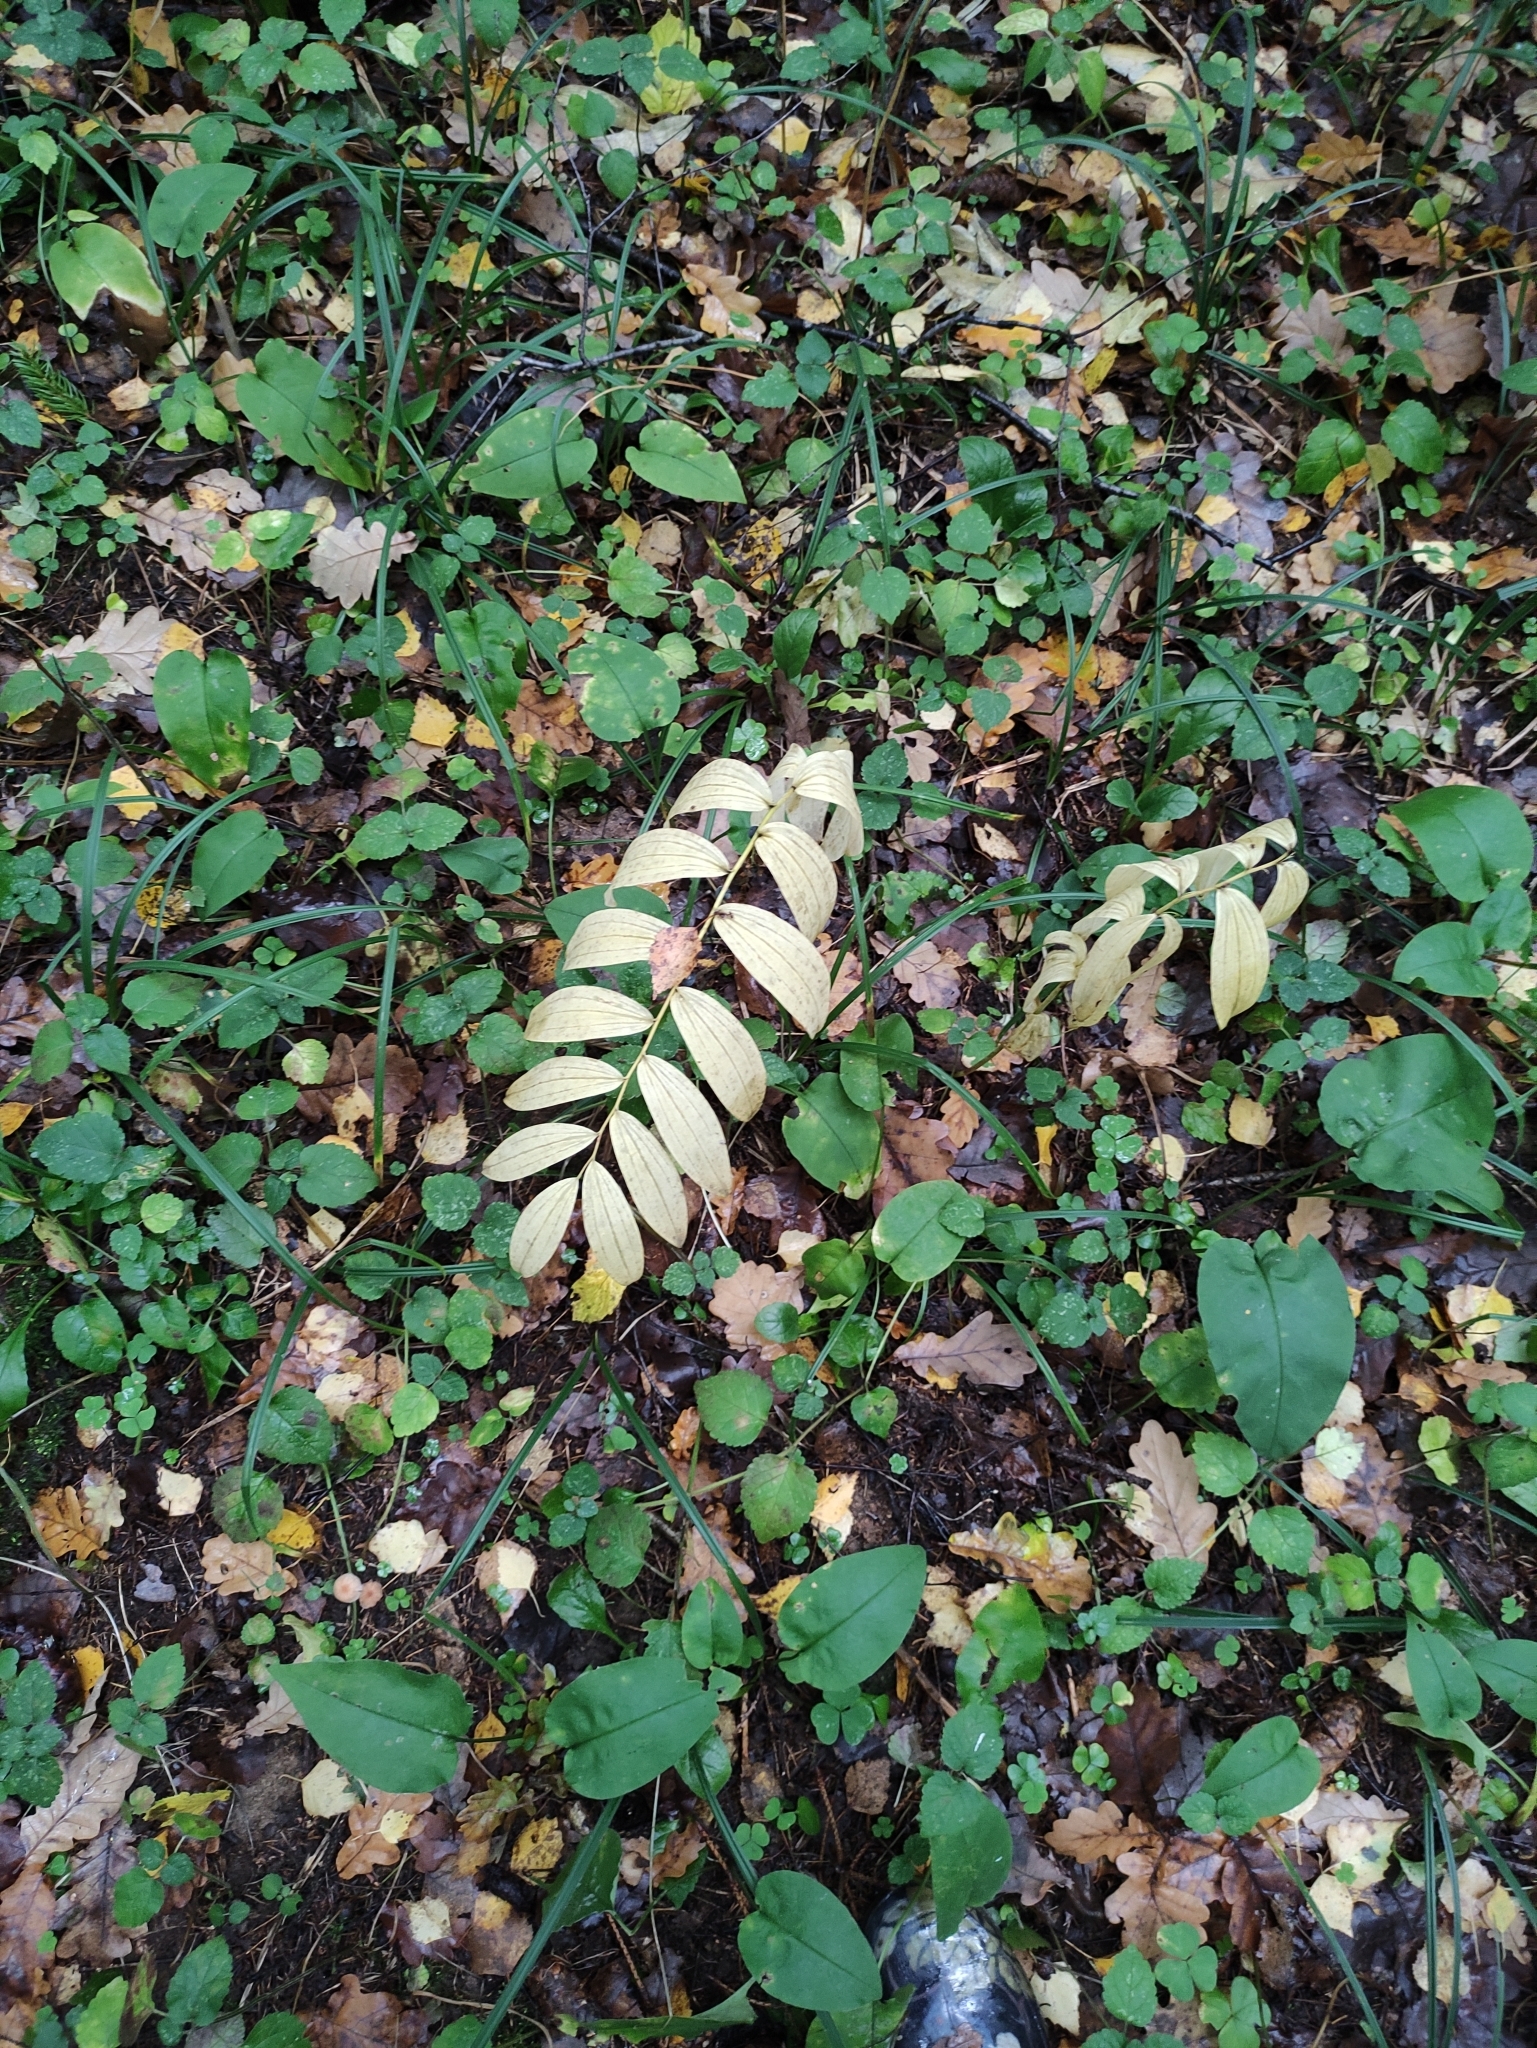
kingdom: Plantae
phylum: Tracheophyta
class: Liliopsida
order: Asparagales
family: Asparagaceae
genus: Polygonatum
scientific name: Polygonatum multiflorum
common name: Solomon's-seal
